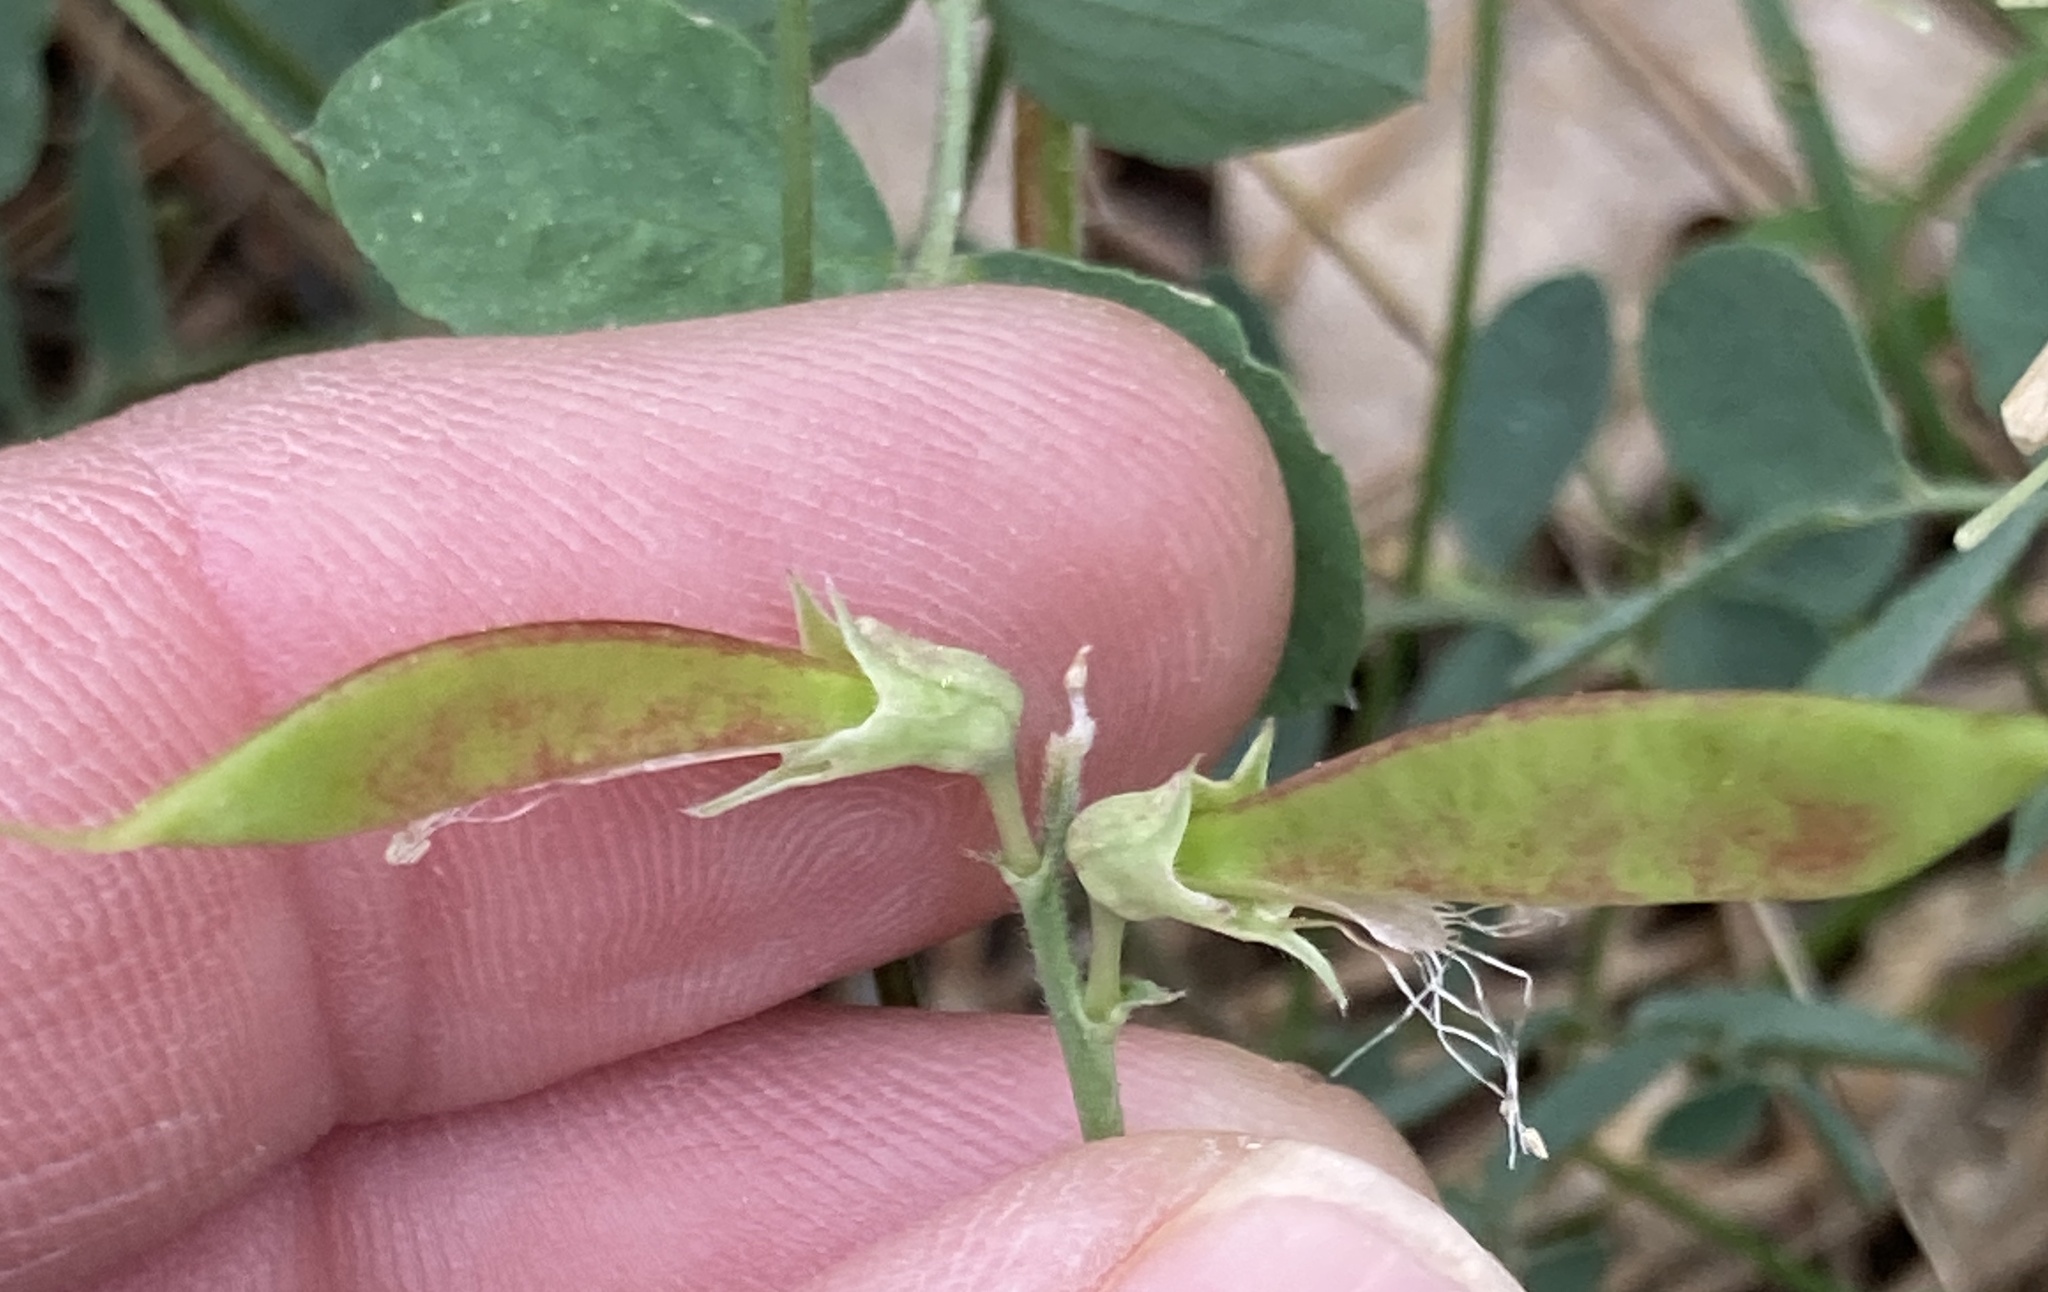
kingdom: Plantae
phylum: Tracheophyta
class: Magnoliopsida
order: Fabales
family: Fabaceae
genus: Lathyrus
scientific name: Lathyrus nevadensis
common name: Sierra nevada peavine
